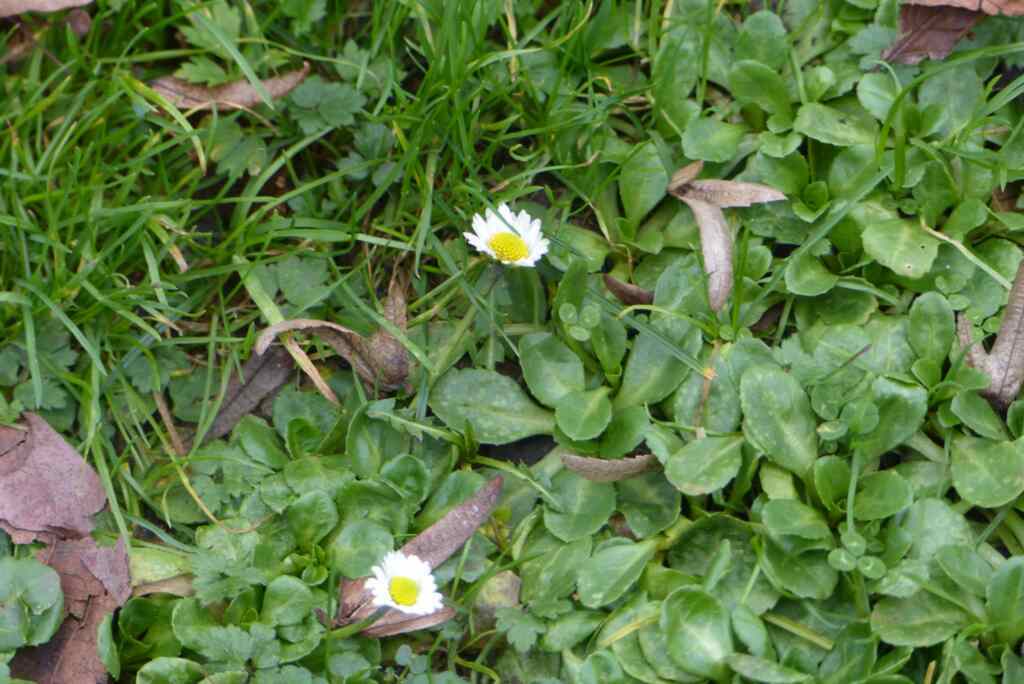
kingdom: Plantae
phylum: Tracheophyta
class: Magnoliopsida
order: Asterales
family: Asteraceae
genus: Bellis
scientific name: Bellis perennis
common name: Lawndaisy
